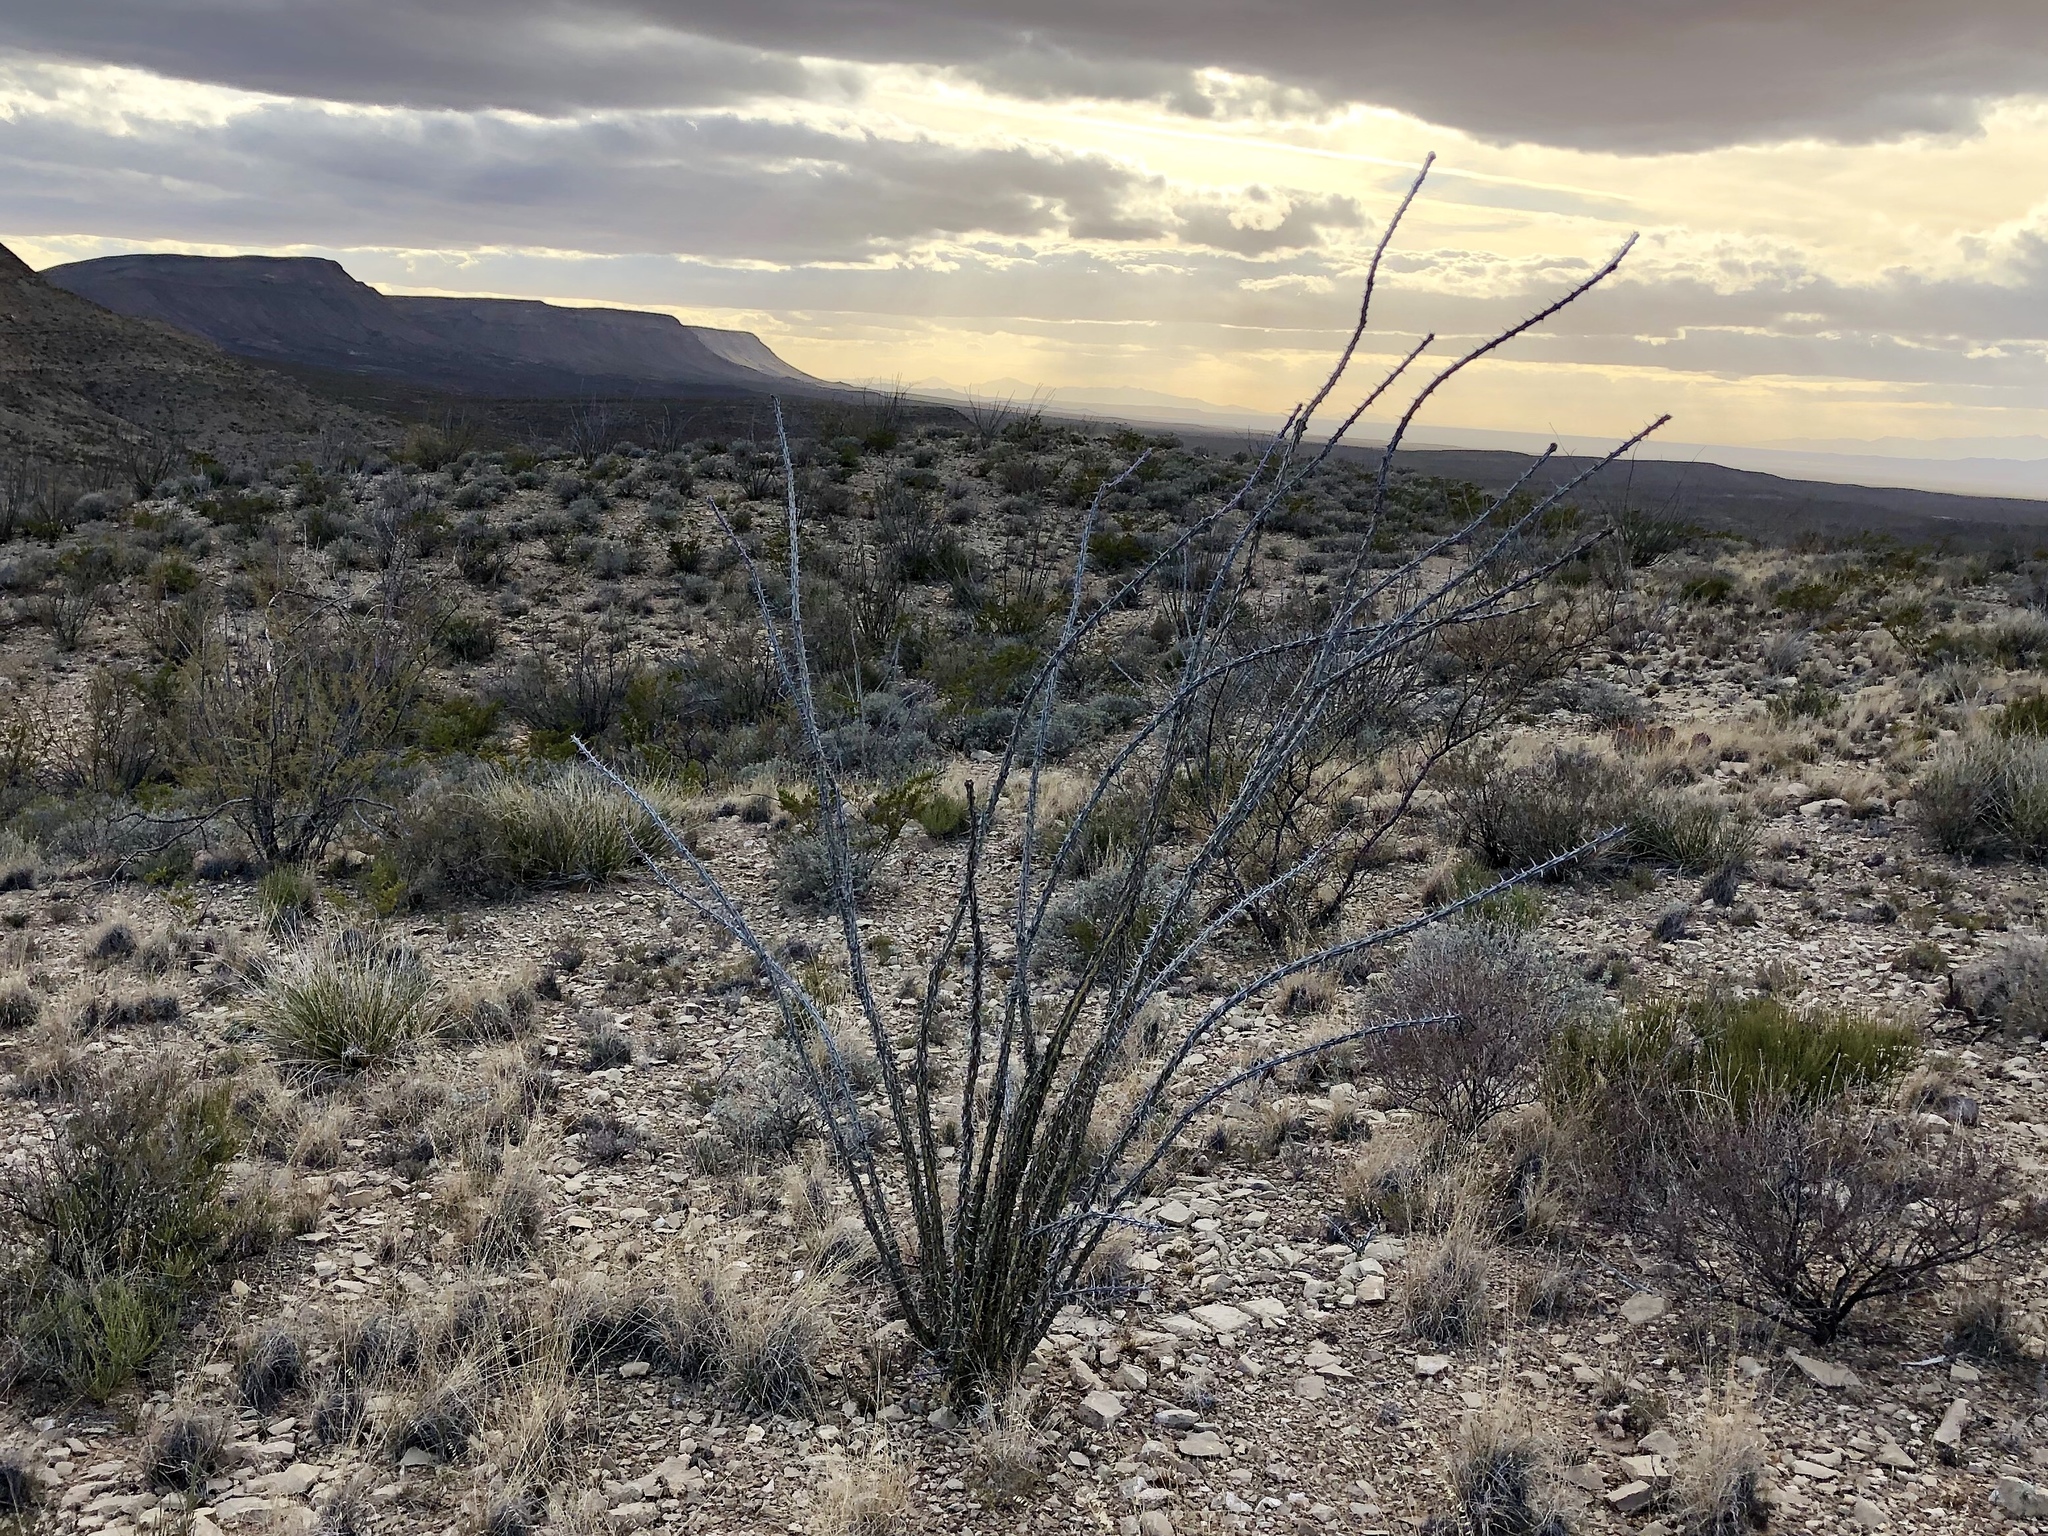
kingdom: Plantae
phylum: Tracheophyta
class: Magnoliopsida
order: Ericales
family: Fouquieriaceae
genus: Fouquieria
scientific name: Fouquieria splendens
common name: Vine-cactus
